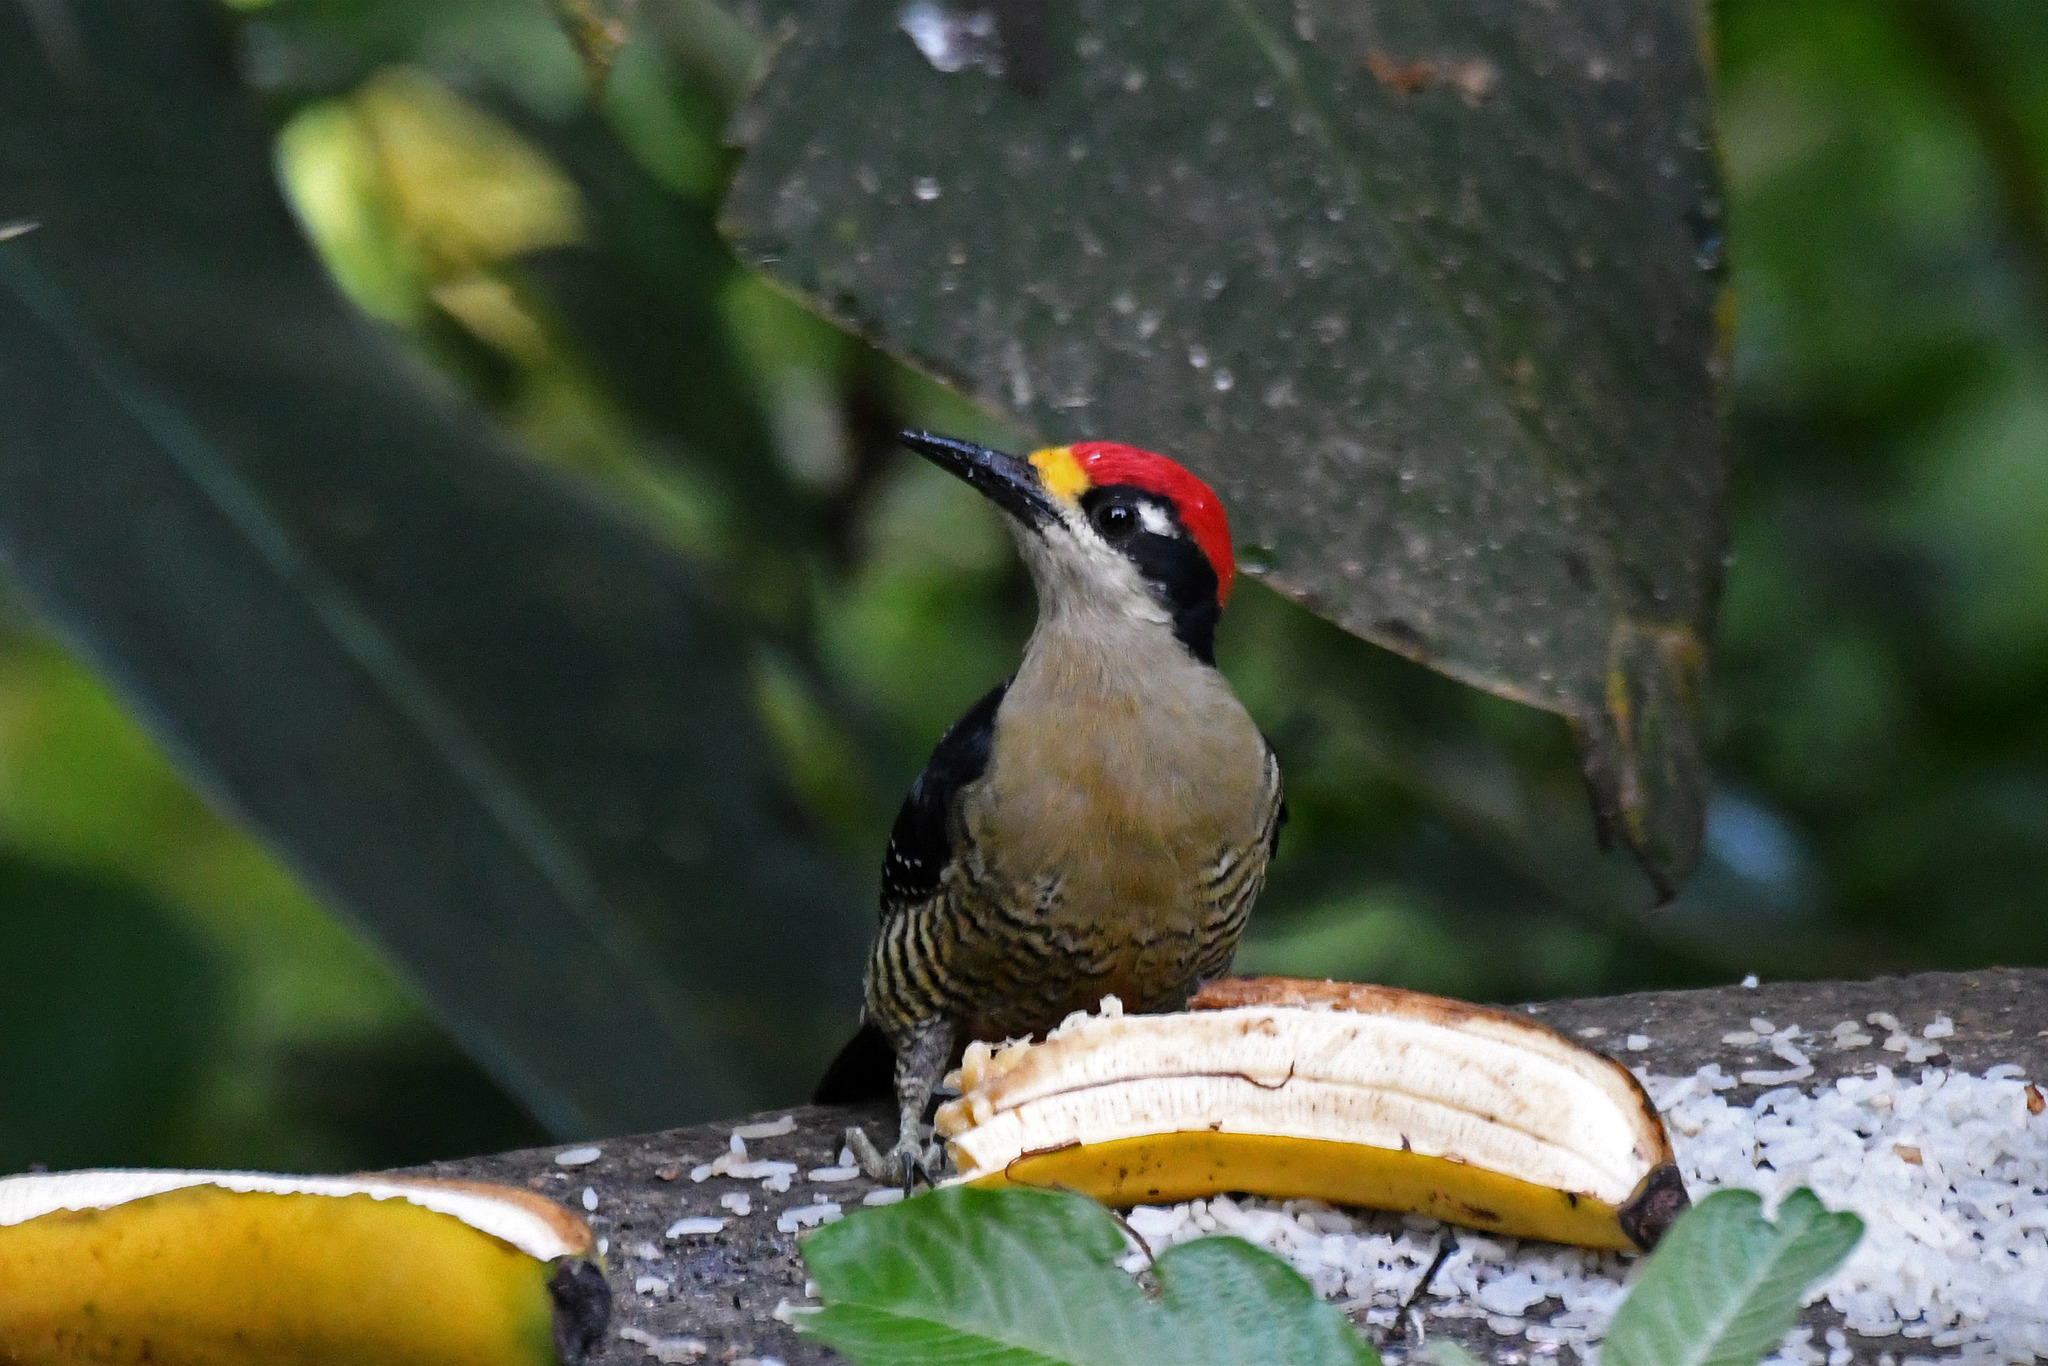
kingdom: Animalia
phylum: Chordata
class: Aves
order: Piciformes
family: Picidae
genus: Melanerpes
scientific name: Melanerpes pucherani
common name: Black-cheeked woodpecker
